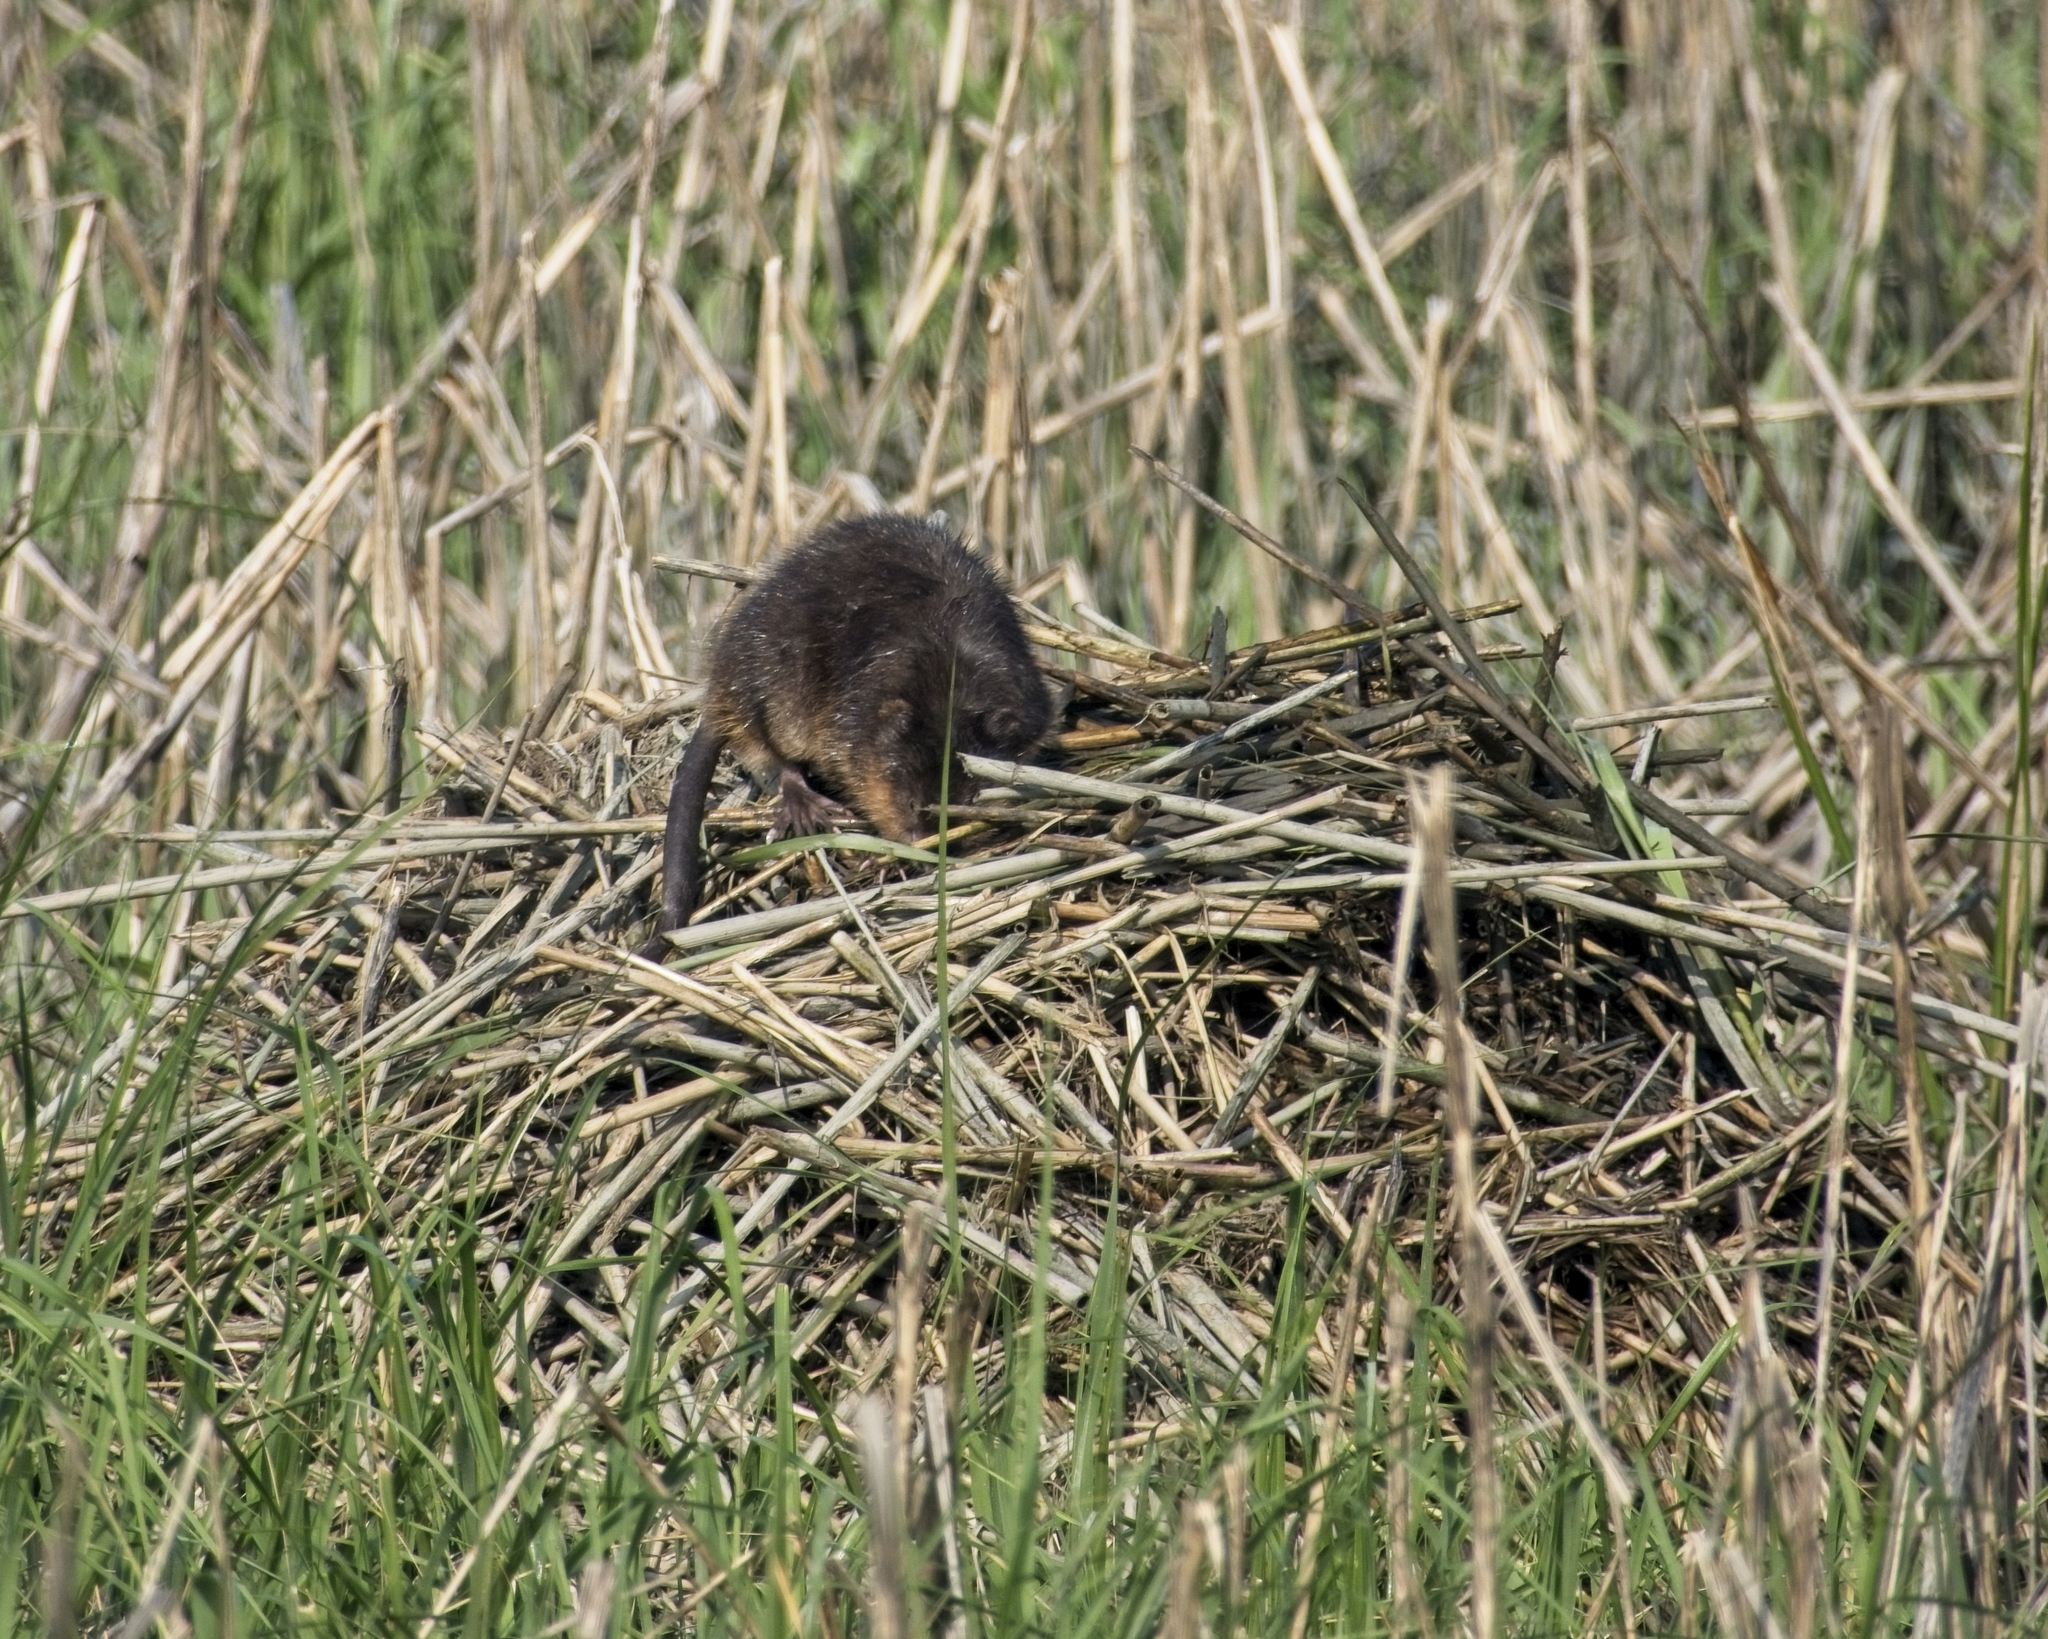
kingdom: Animalia
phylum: Chordata
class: Mammalia
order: Rodentia
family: Cricetidae
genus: Ondatra
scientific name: Ondatra zibethicus
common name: Muskrat
